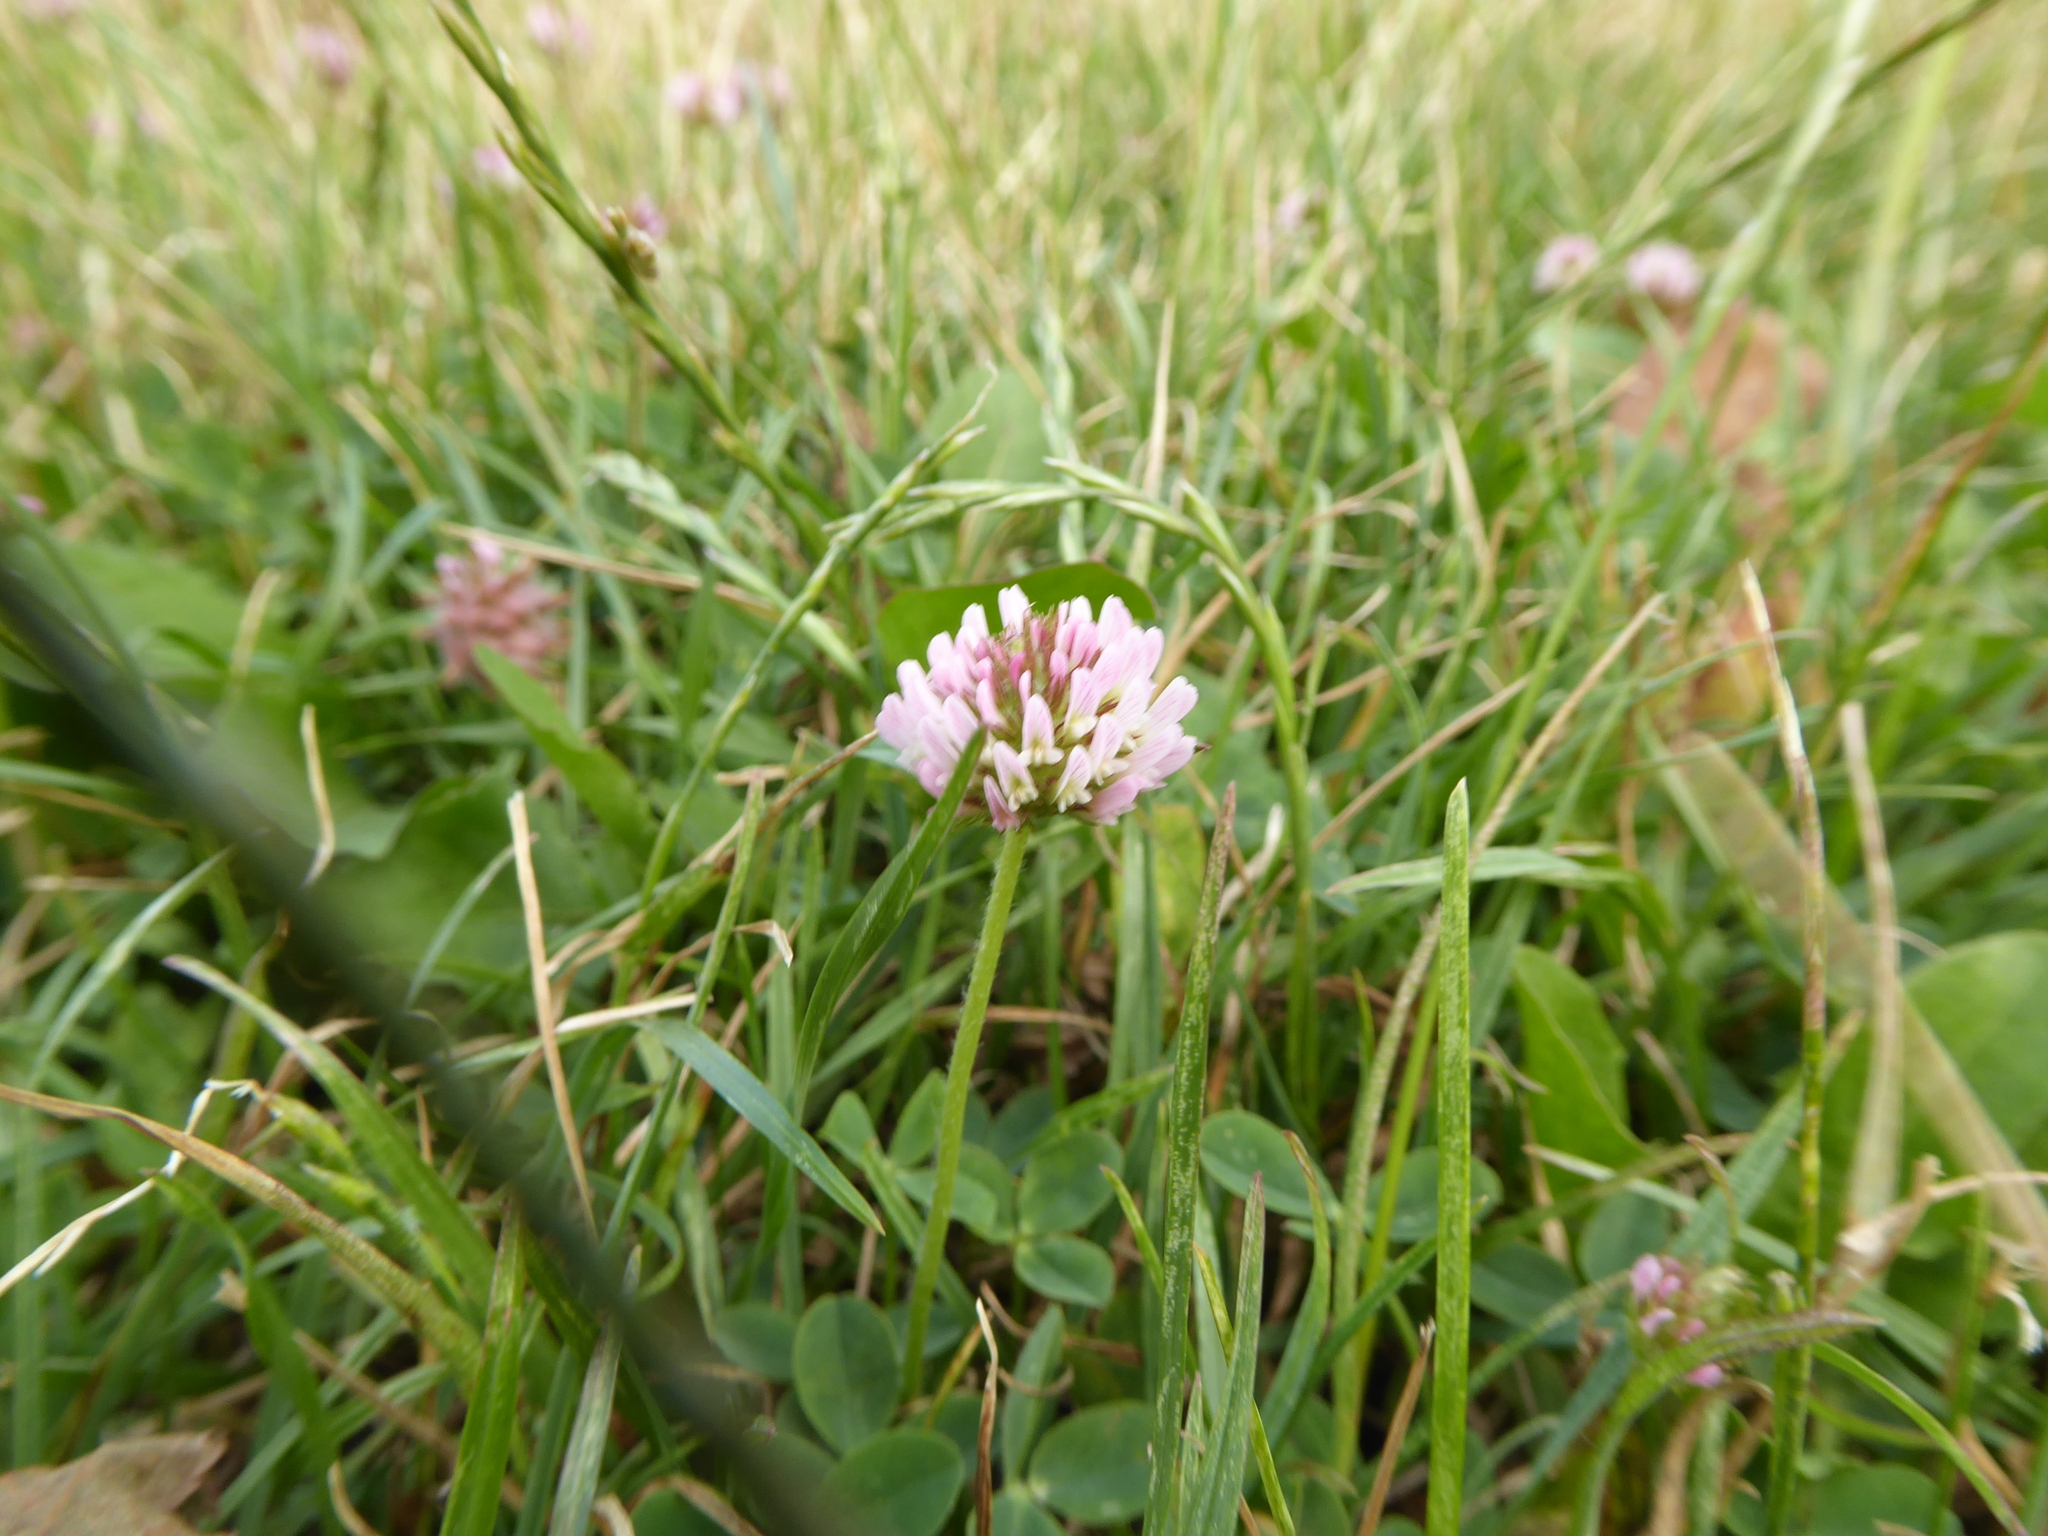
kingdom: Plantae
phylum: Tracheophyta
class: Magnoliopsida
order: Fabales
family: Fabaceae
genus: Trifolium
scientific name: Trifolium fragiferum
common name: Strawberry clover
